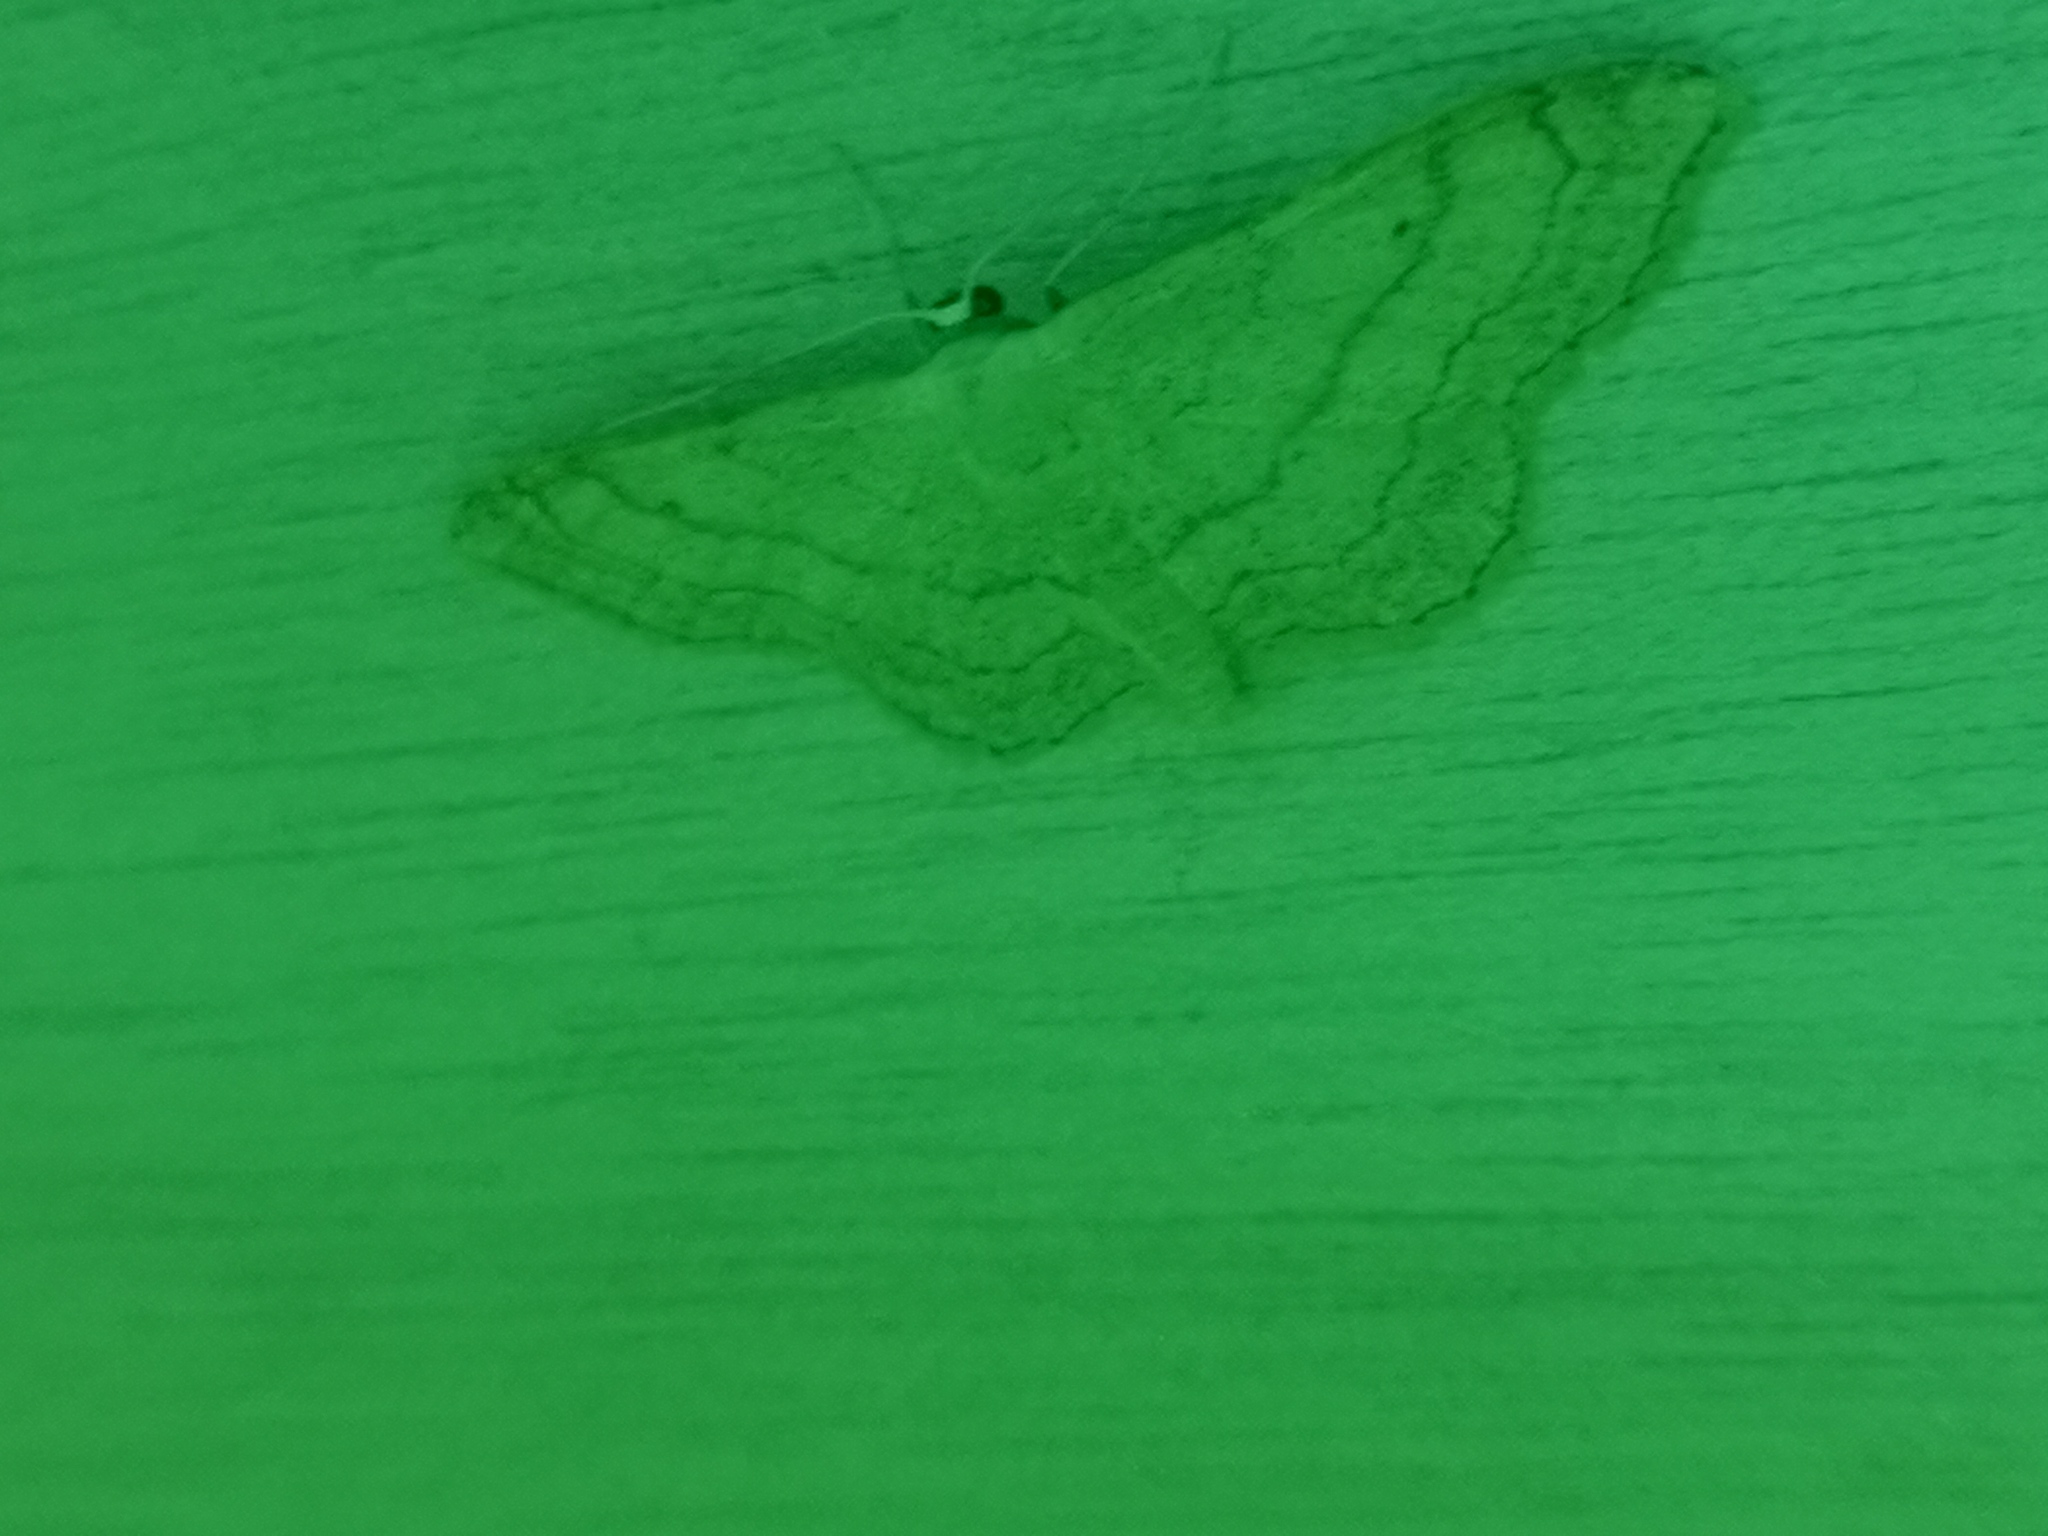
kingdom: Animalia
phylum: Arthropoda
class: Insecta
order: Lepidoptera
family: Geometridae
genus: Idaea
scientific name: Idaea aversata
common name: Riband wave
